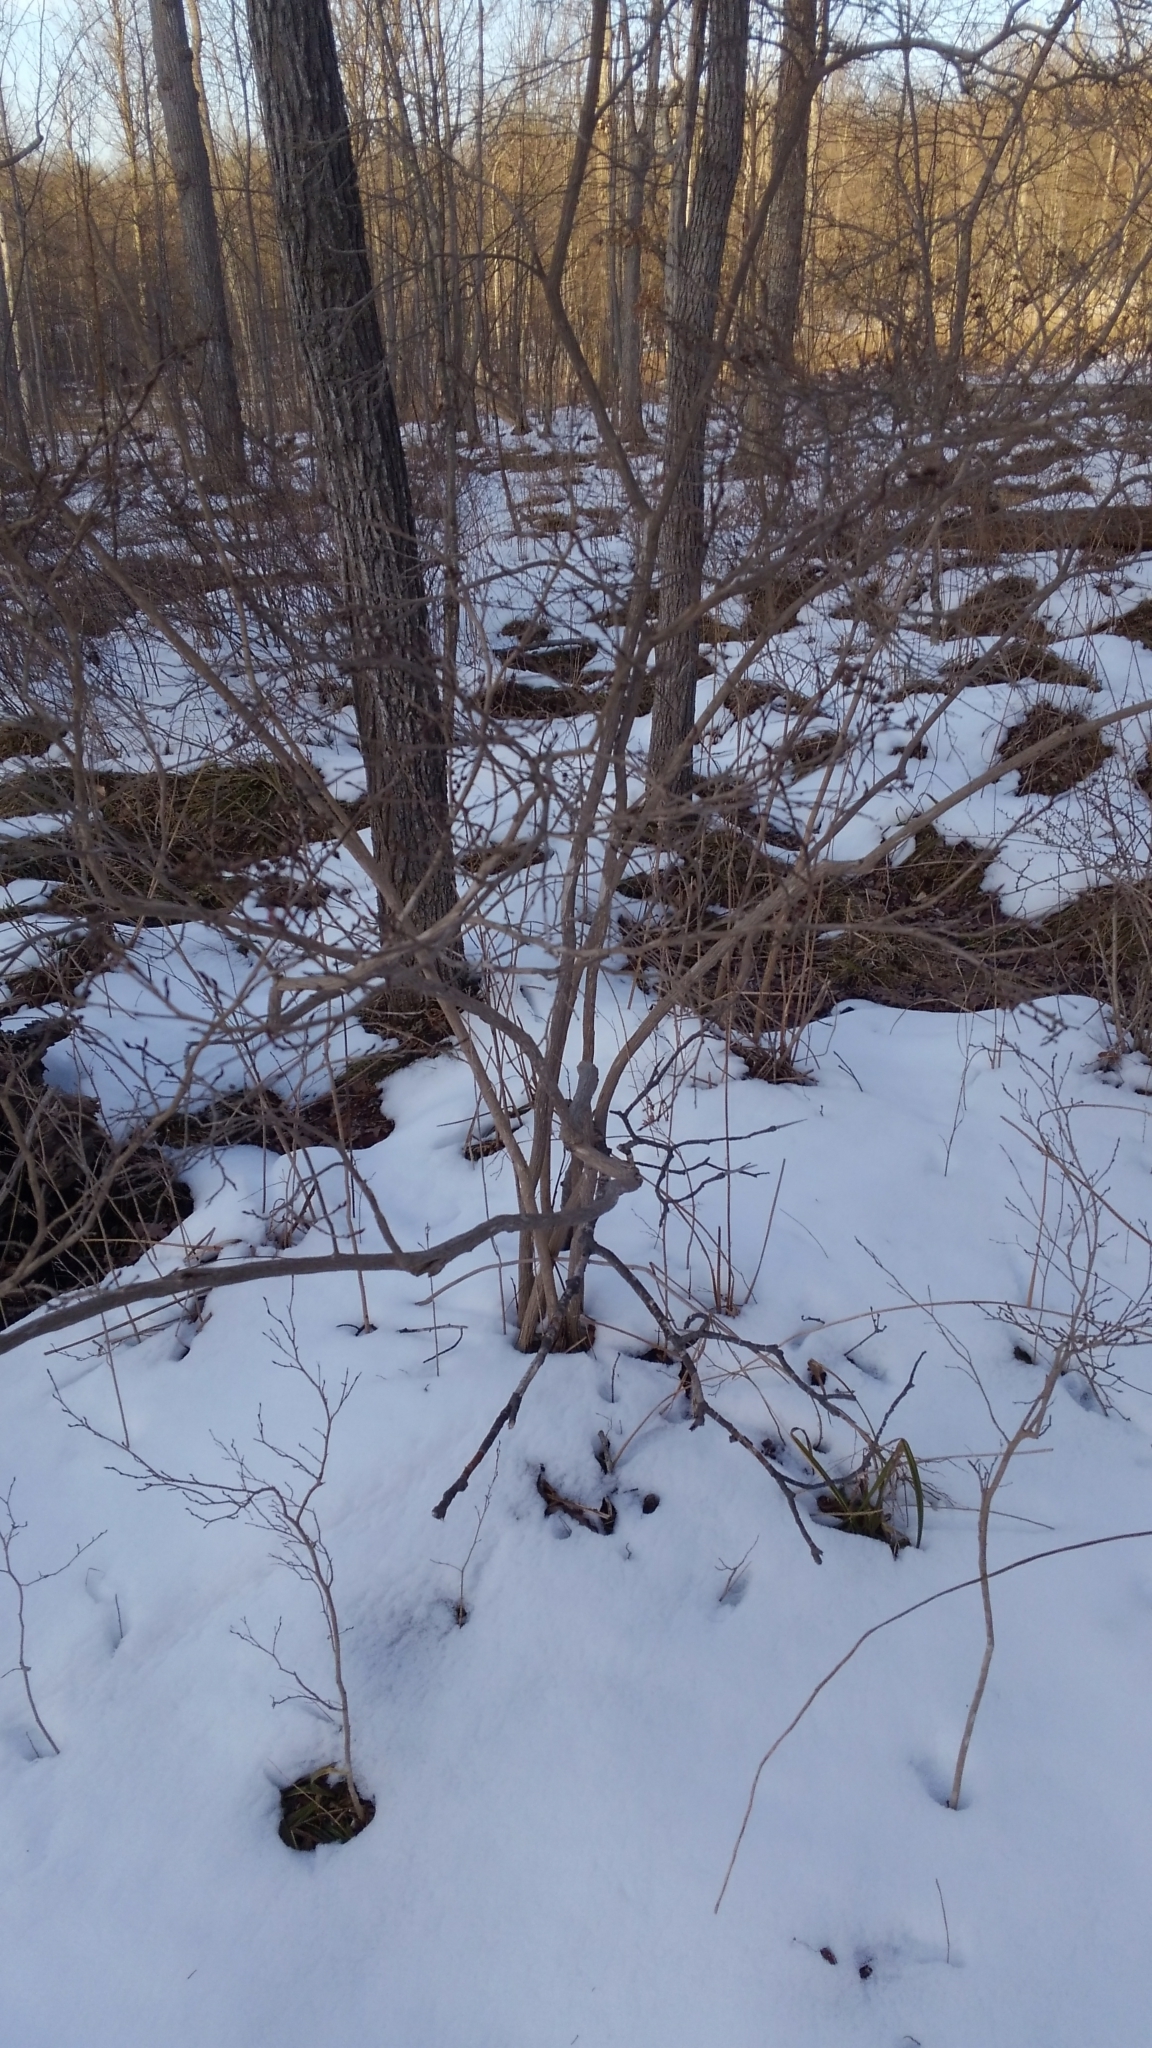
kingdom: Plantae
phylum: Tracheophyta
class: Magnoliopsida
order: Ericales
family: Ericaceae
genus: Lyonia
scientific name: Lyonia ligustrina
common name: Maleberry
